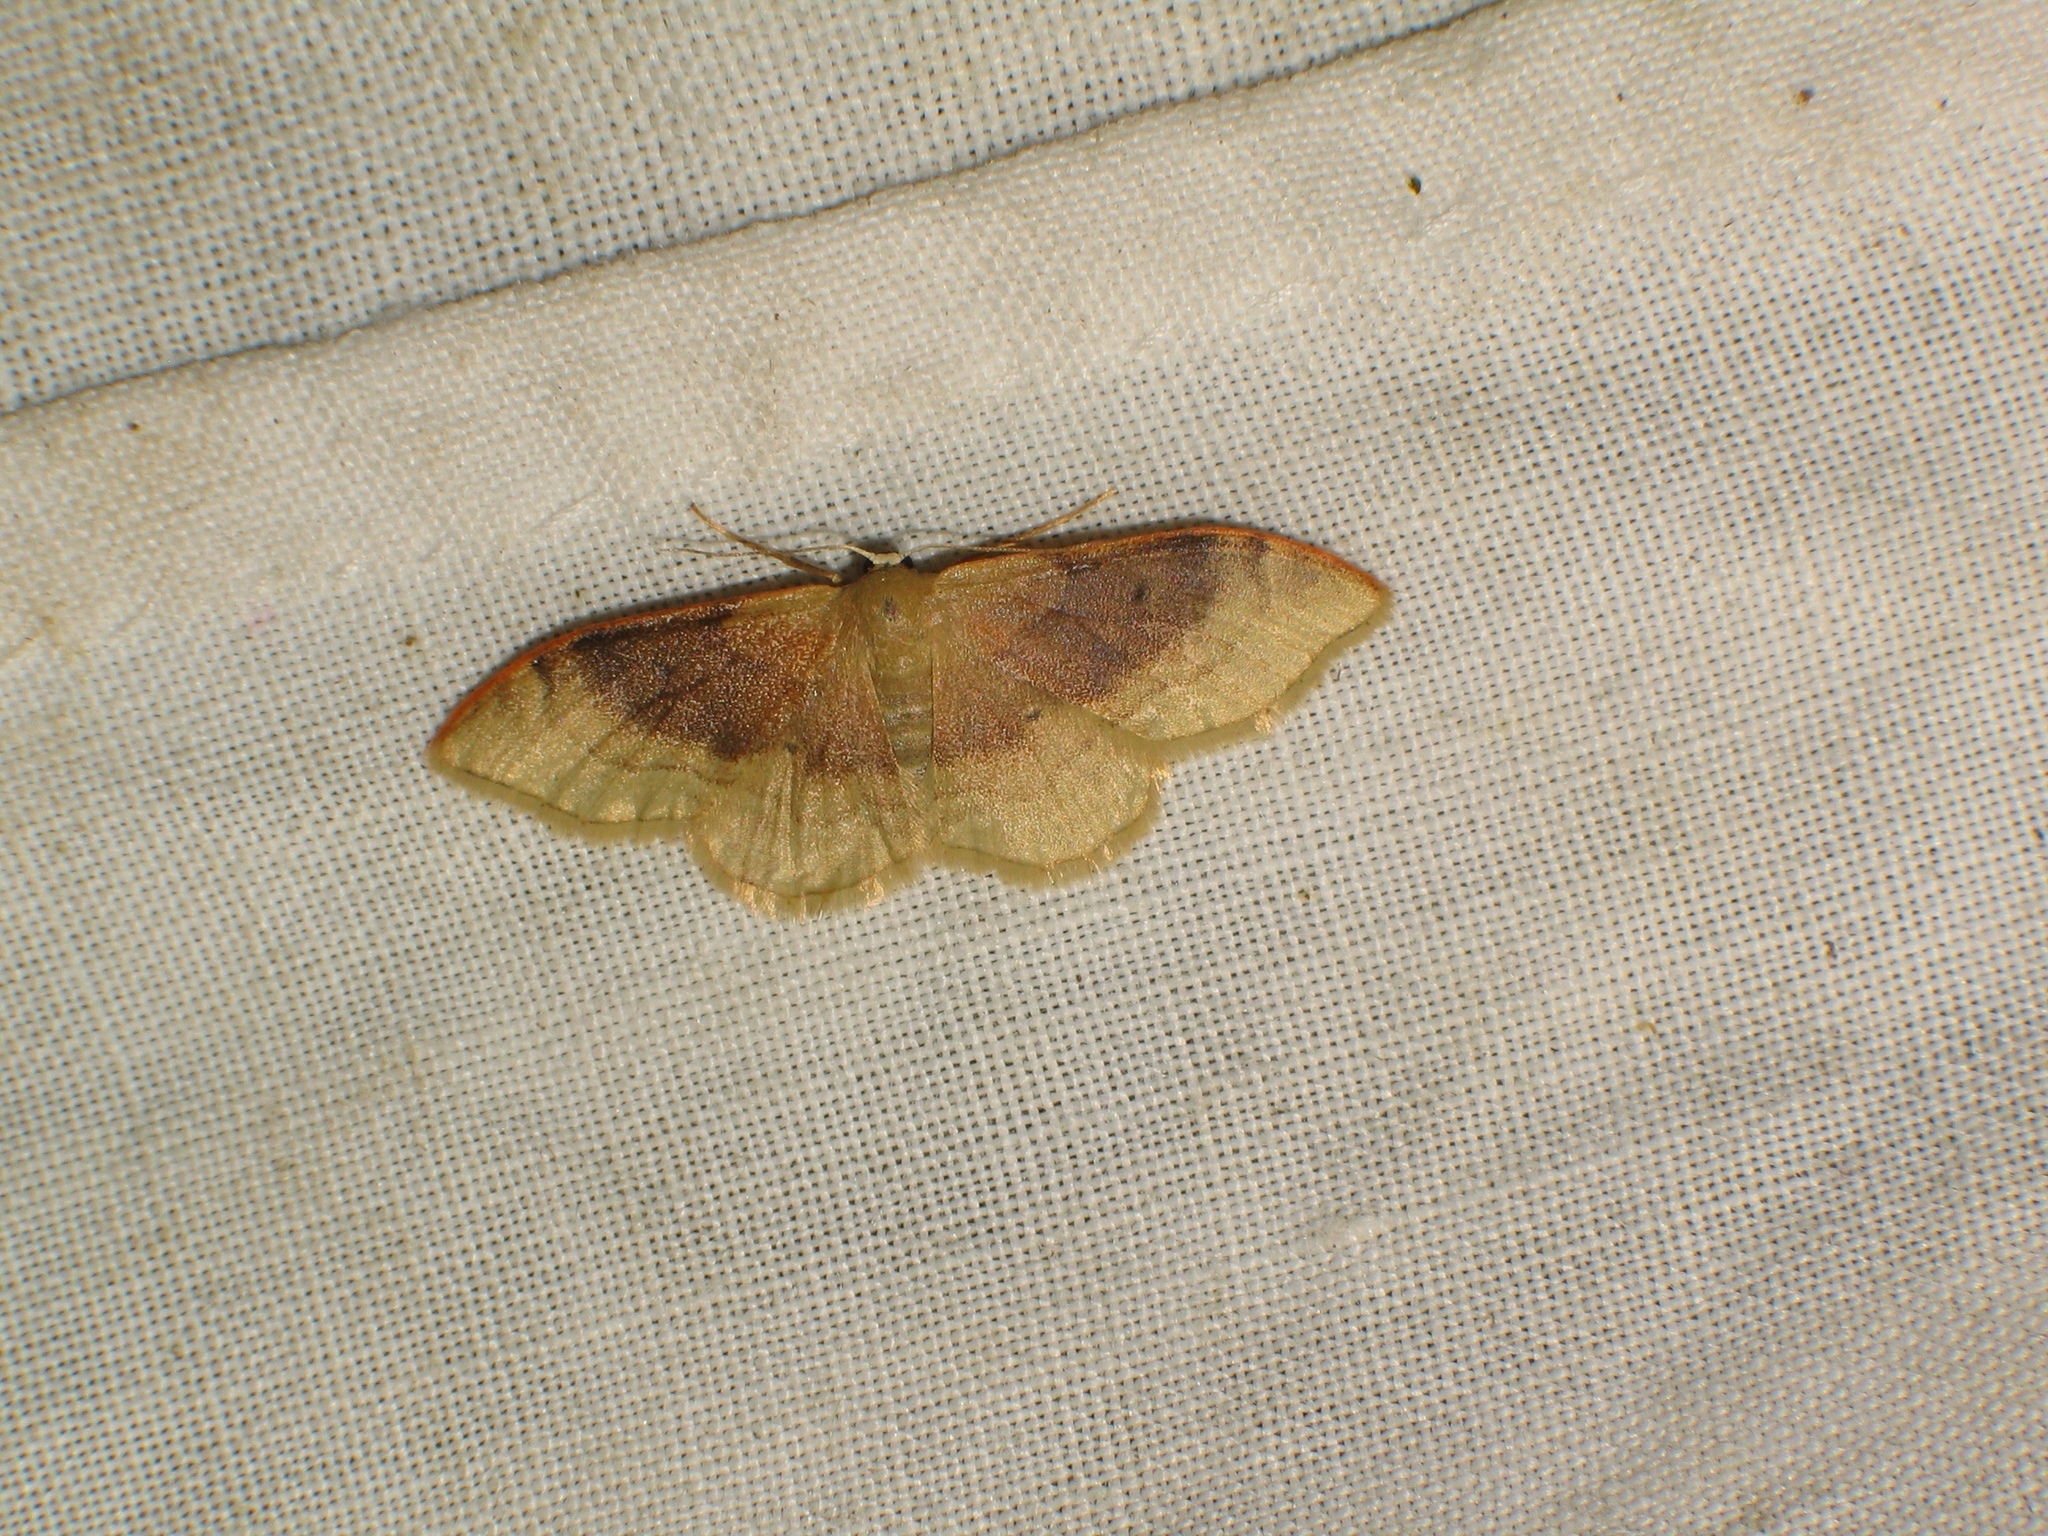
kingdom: Animalia
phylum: Arthropoda
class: Insecta
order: Lepidoptera
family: Geometridae
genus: Idaea
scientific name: Idaea degeneraria
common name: Portland ribbon wave
